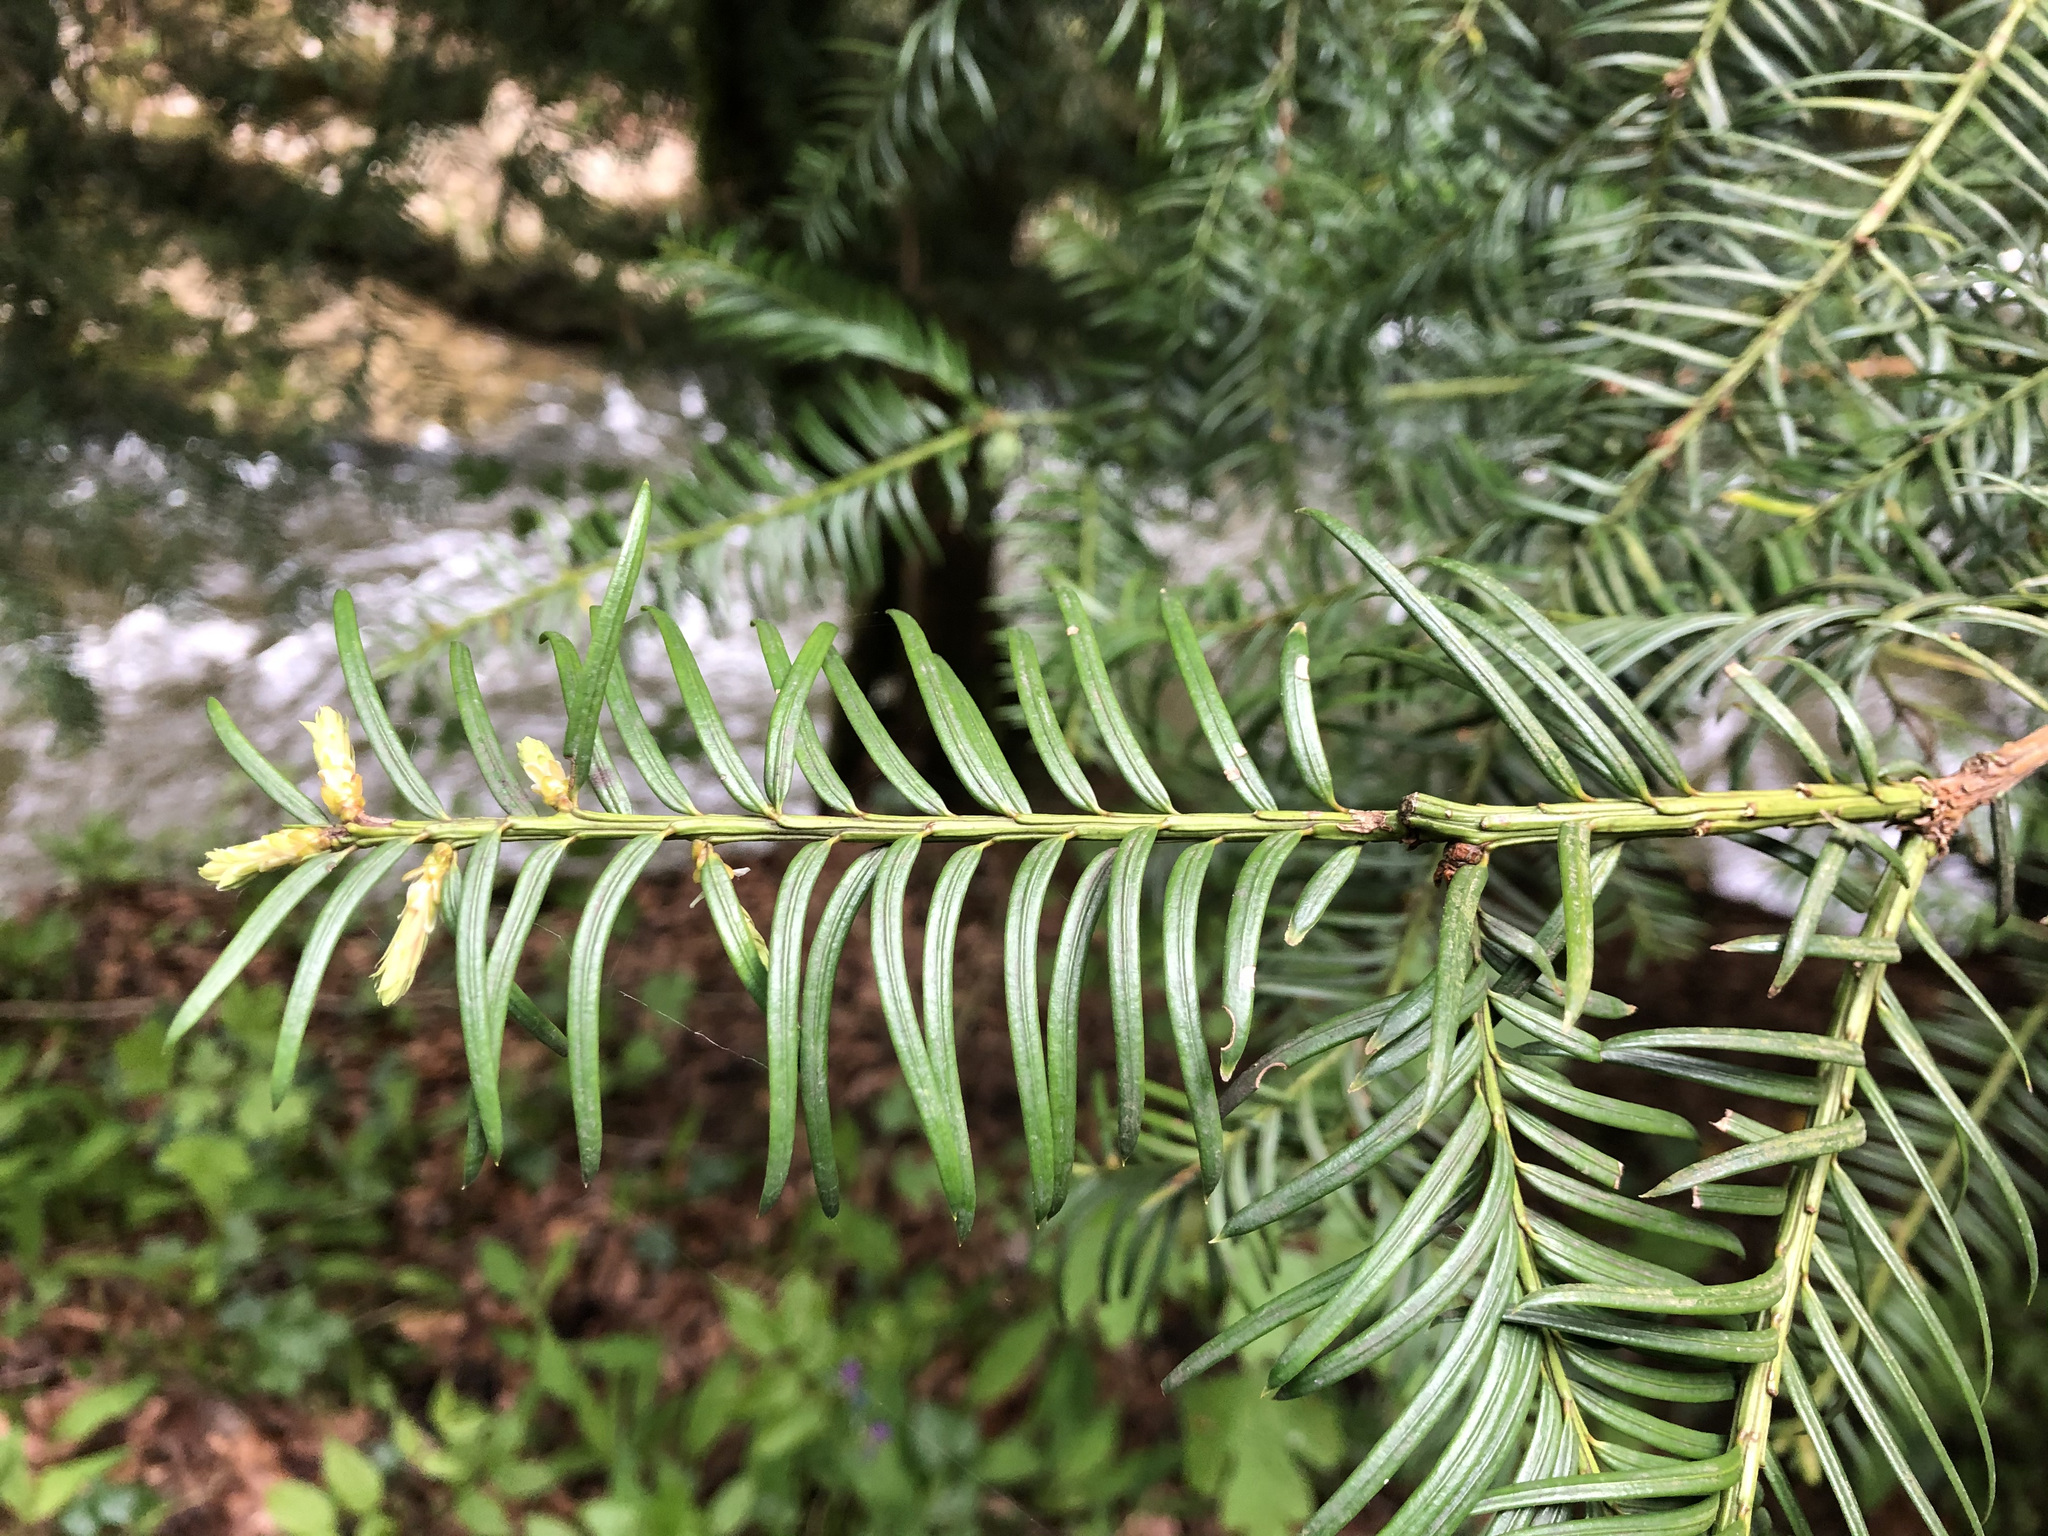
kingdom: Plantae
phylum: Tracheophyta
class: Pinopsida
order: Pinales
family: Taxaceae
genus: Taxus
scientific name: Taxus baccata
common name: Yew
